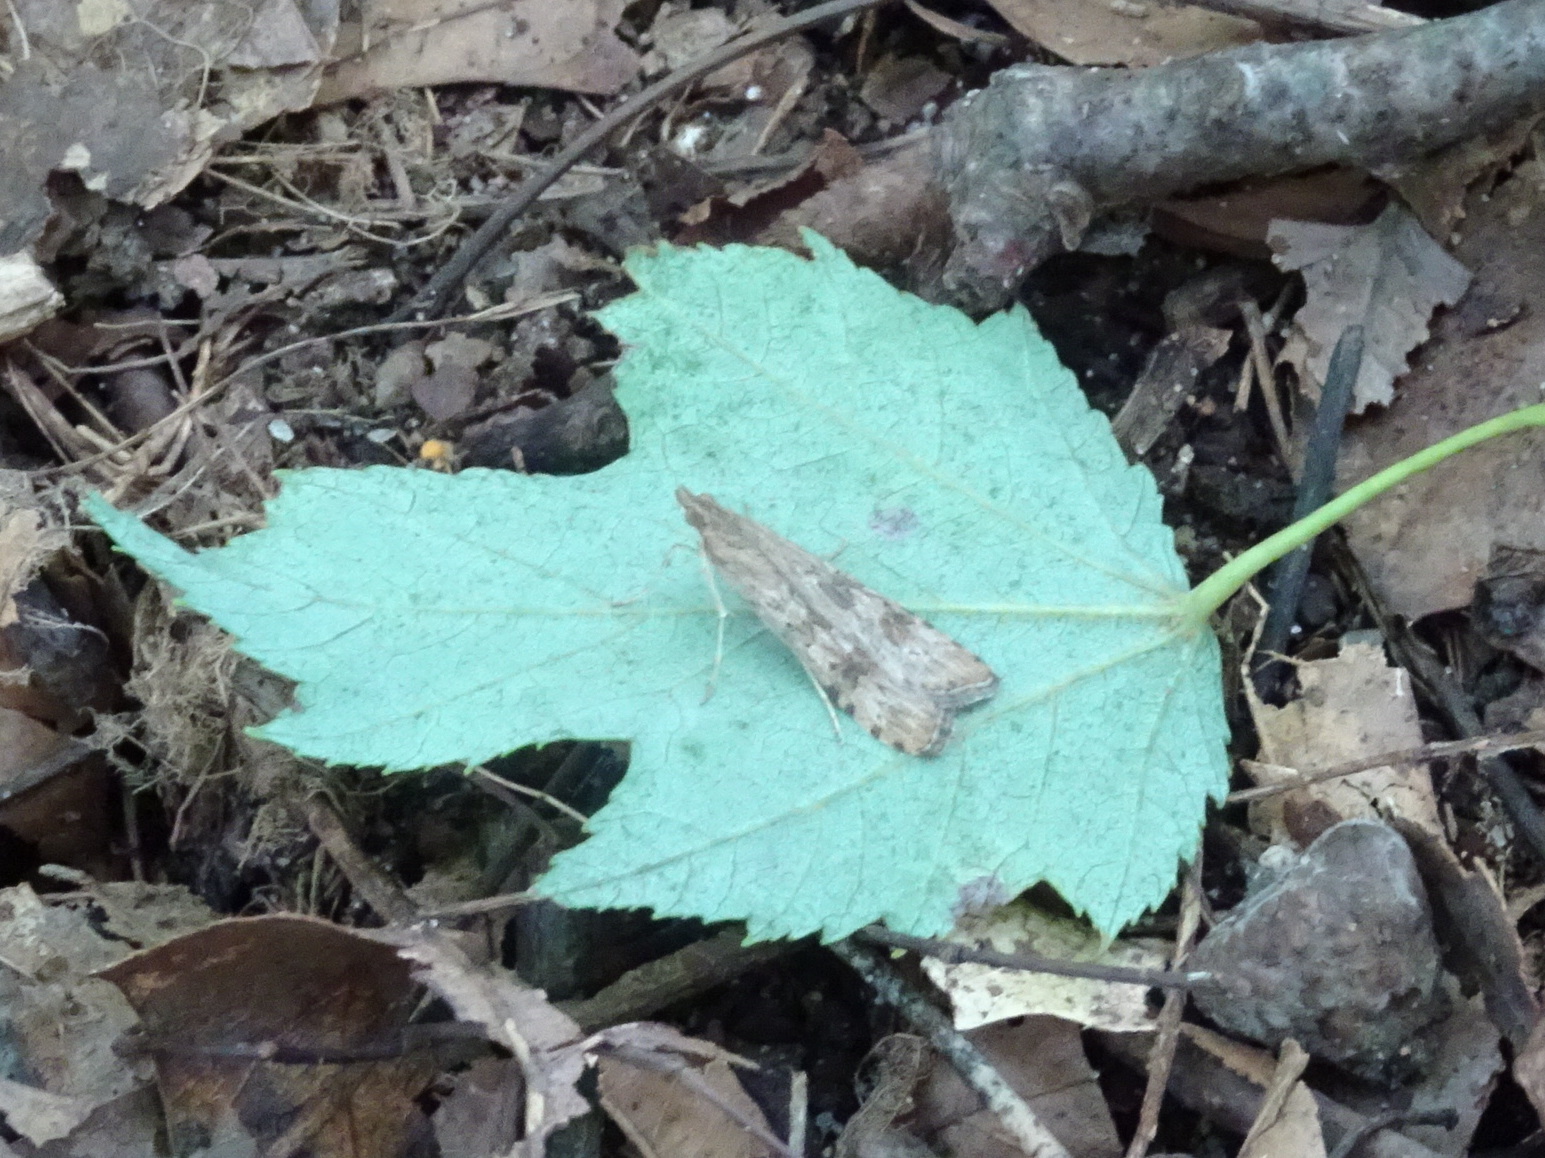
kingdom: Animalia
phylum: Arthropoda
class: Insecta
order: Lepidoptera
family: Crambidae
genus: Nomophila
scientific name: Nomophila nearctica
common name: American rush veneer
